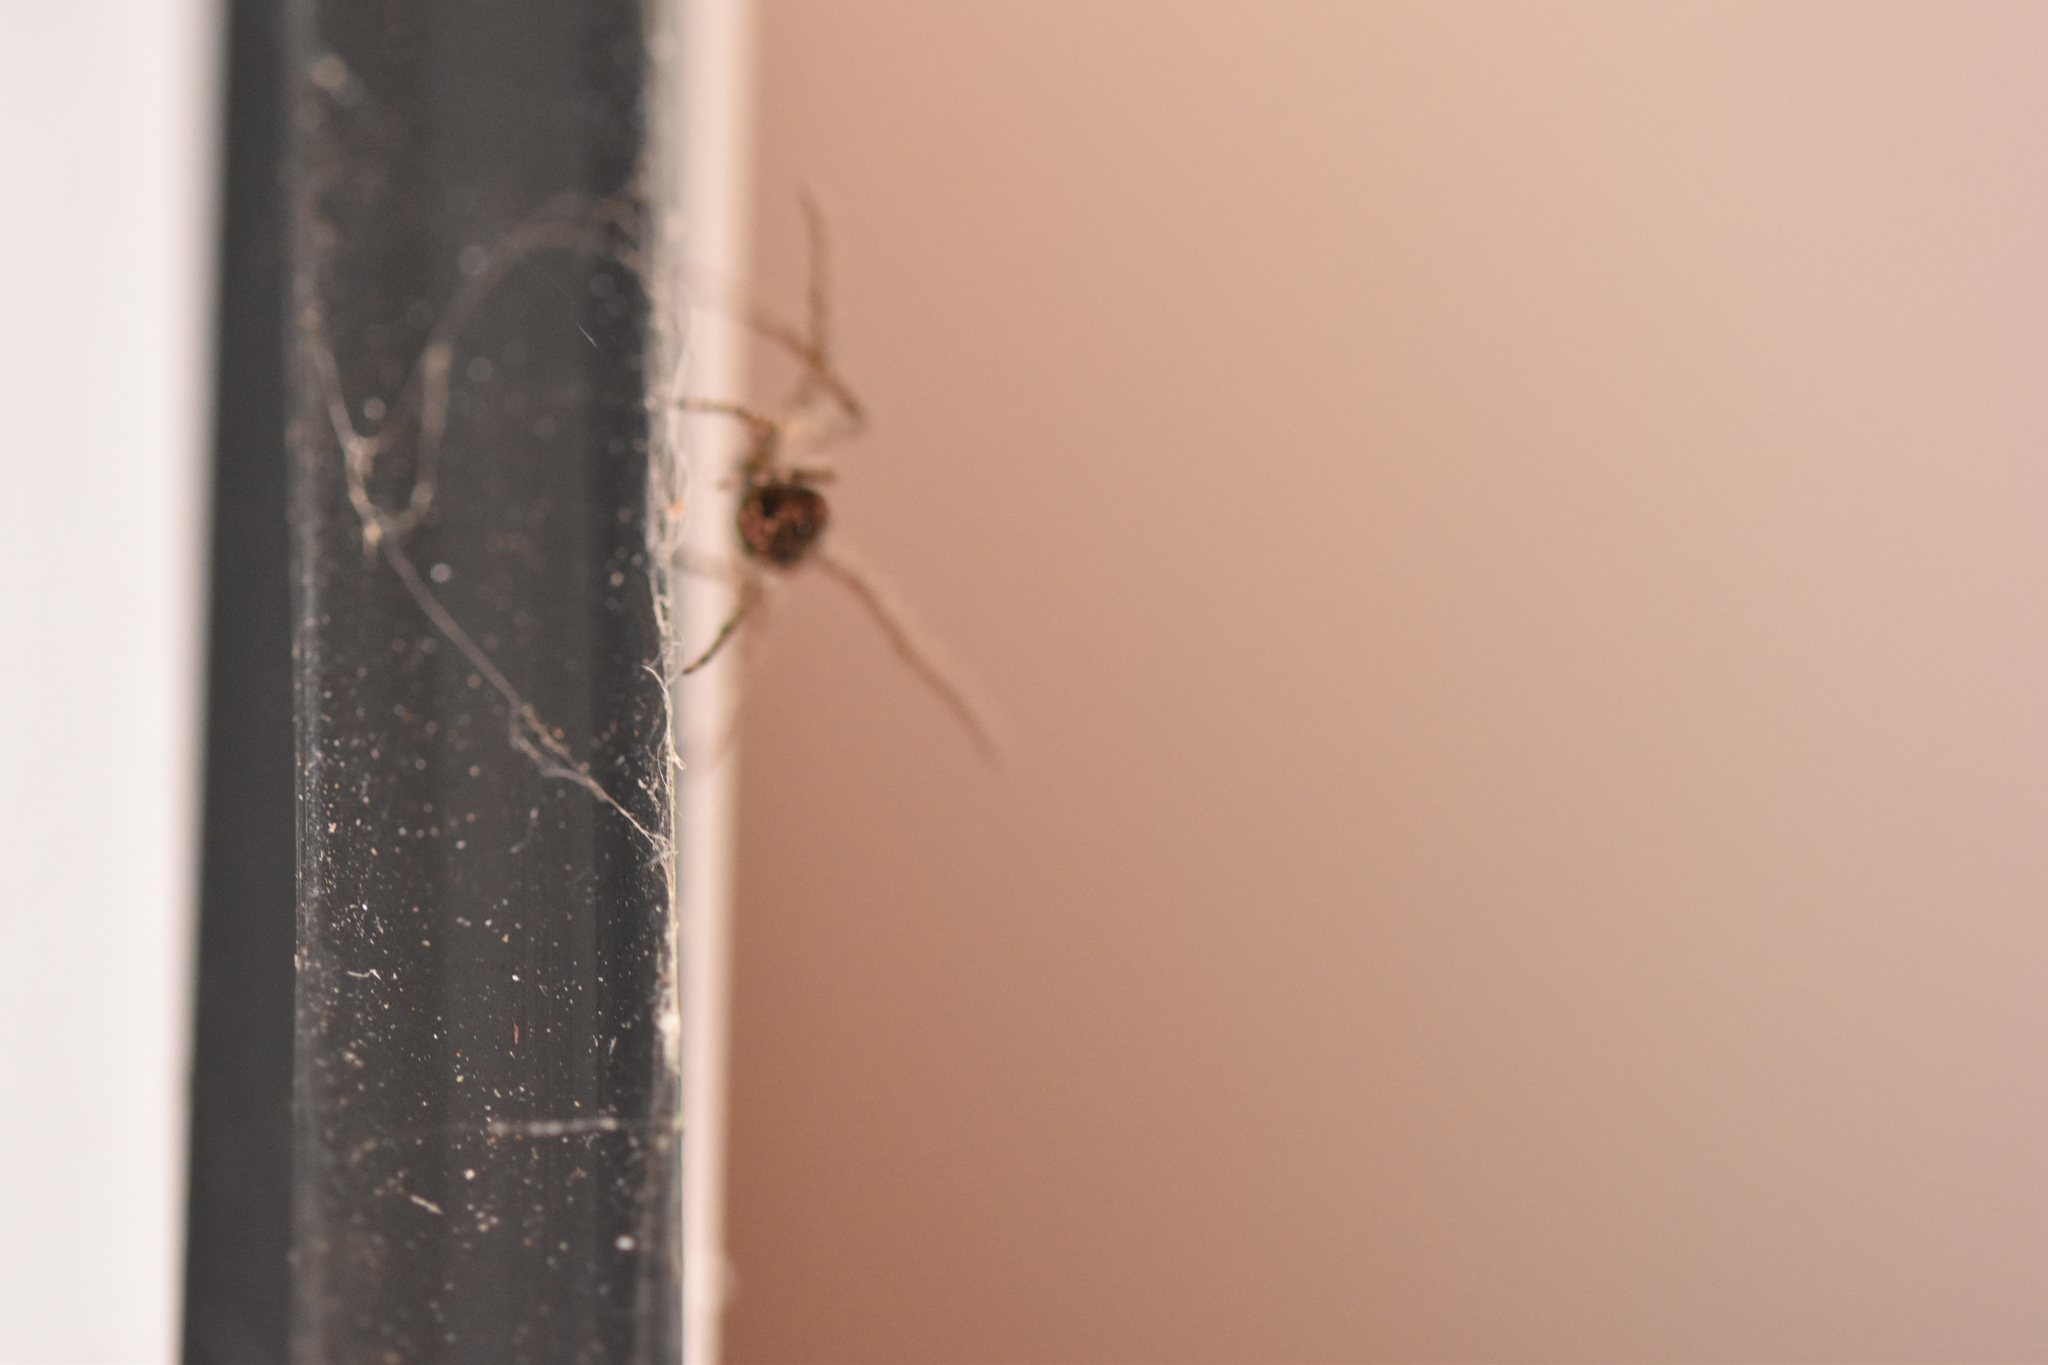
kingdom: Animalia
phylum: Arthropoda
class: Arachnida
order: Araneae
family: Tetragnathidae
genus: Metellina
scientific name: Metellina merianae
